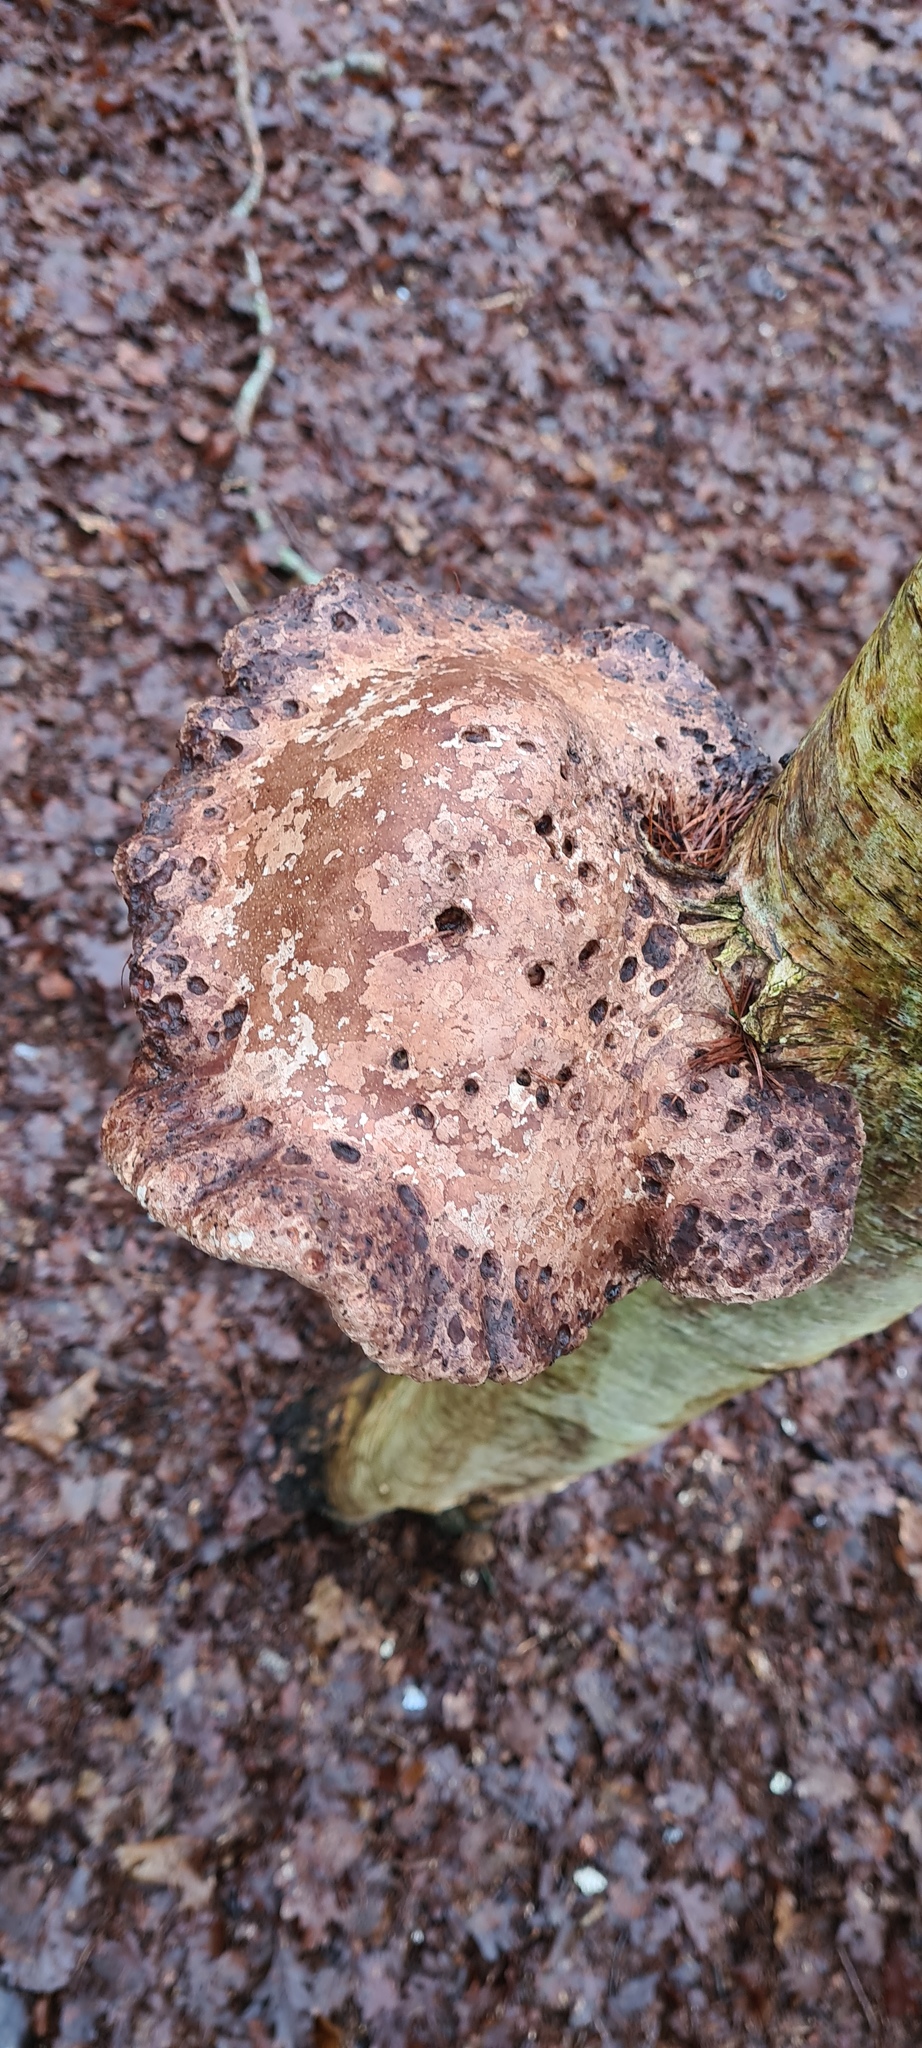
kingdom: Fungi
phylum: Basidiomycota
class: Agaricomycetes
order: Polyporales
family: Fomitopsidaceae
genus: Fomitopsis
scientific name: Fomitopsis betulina
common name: Birch polypore
